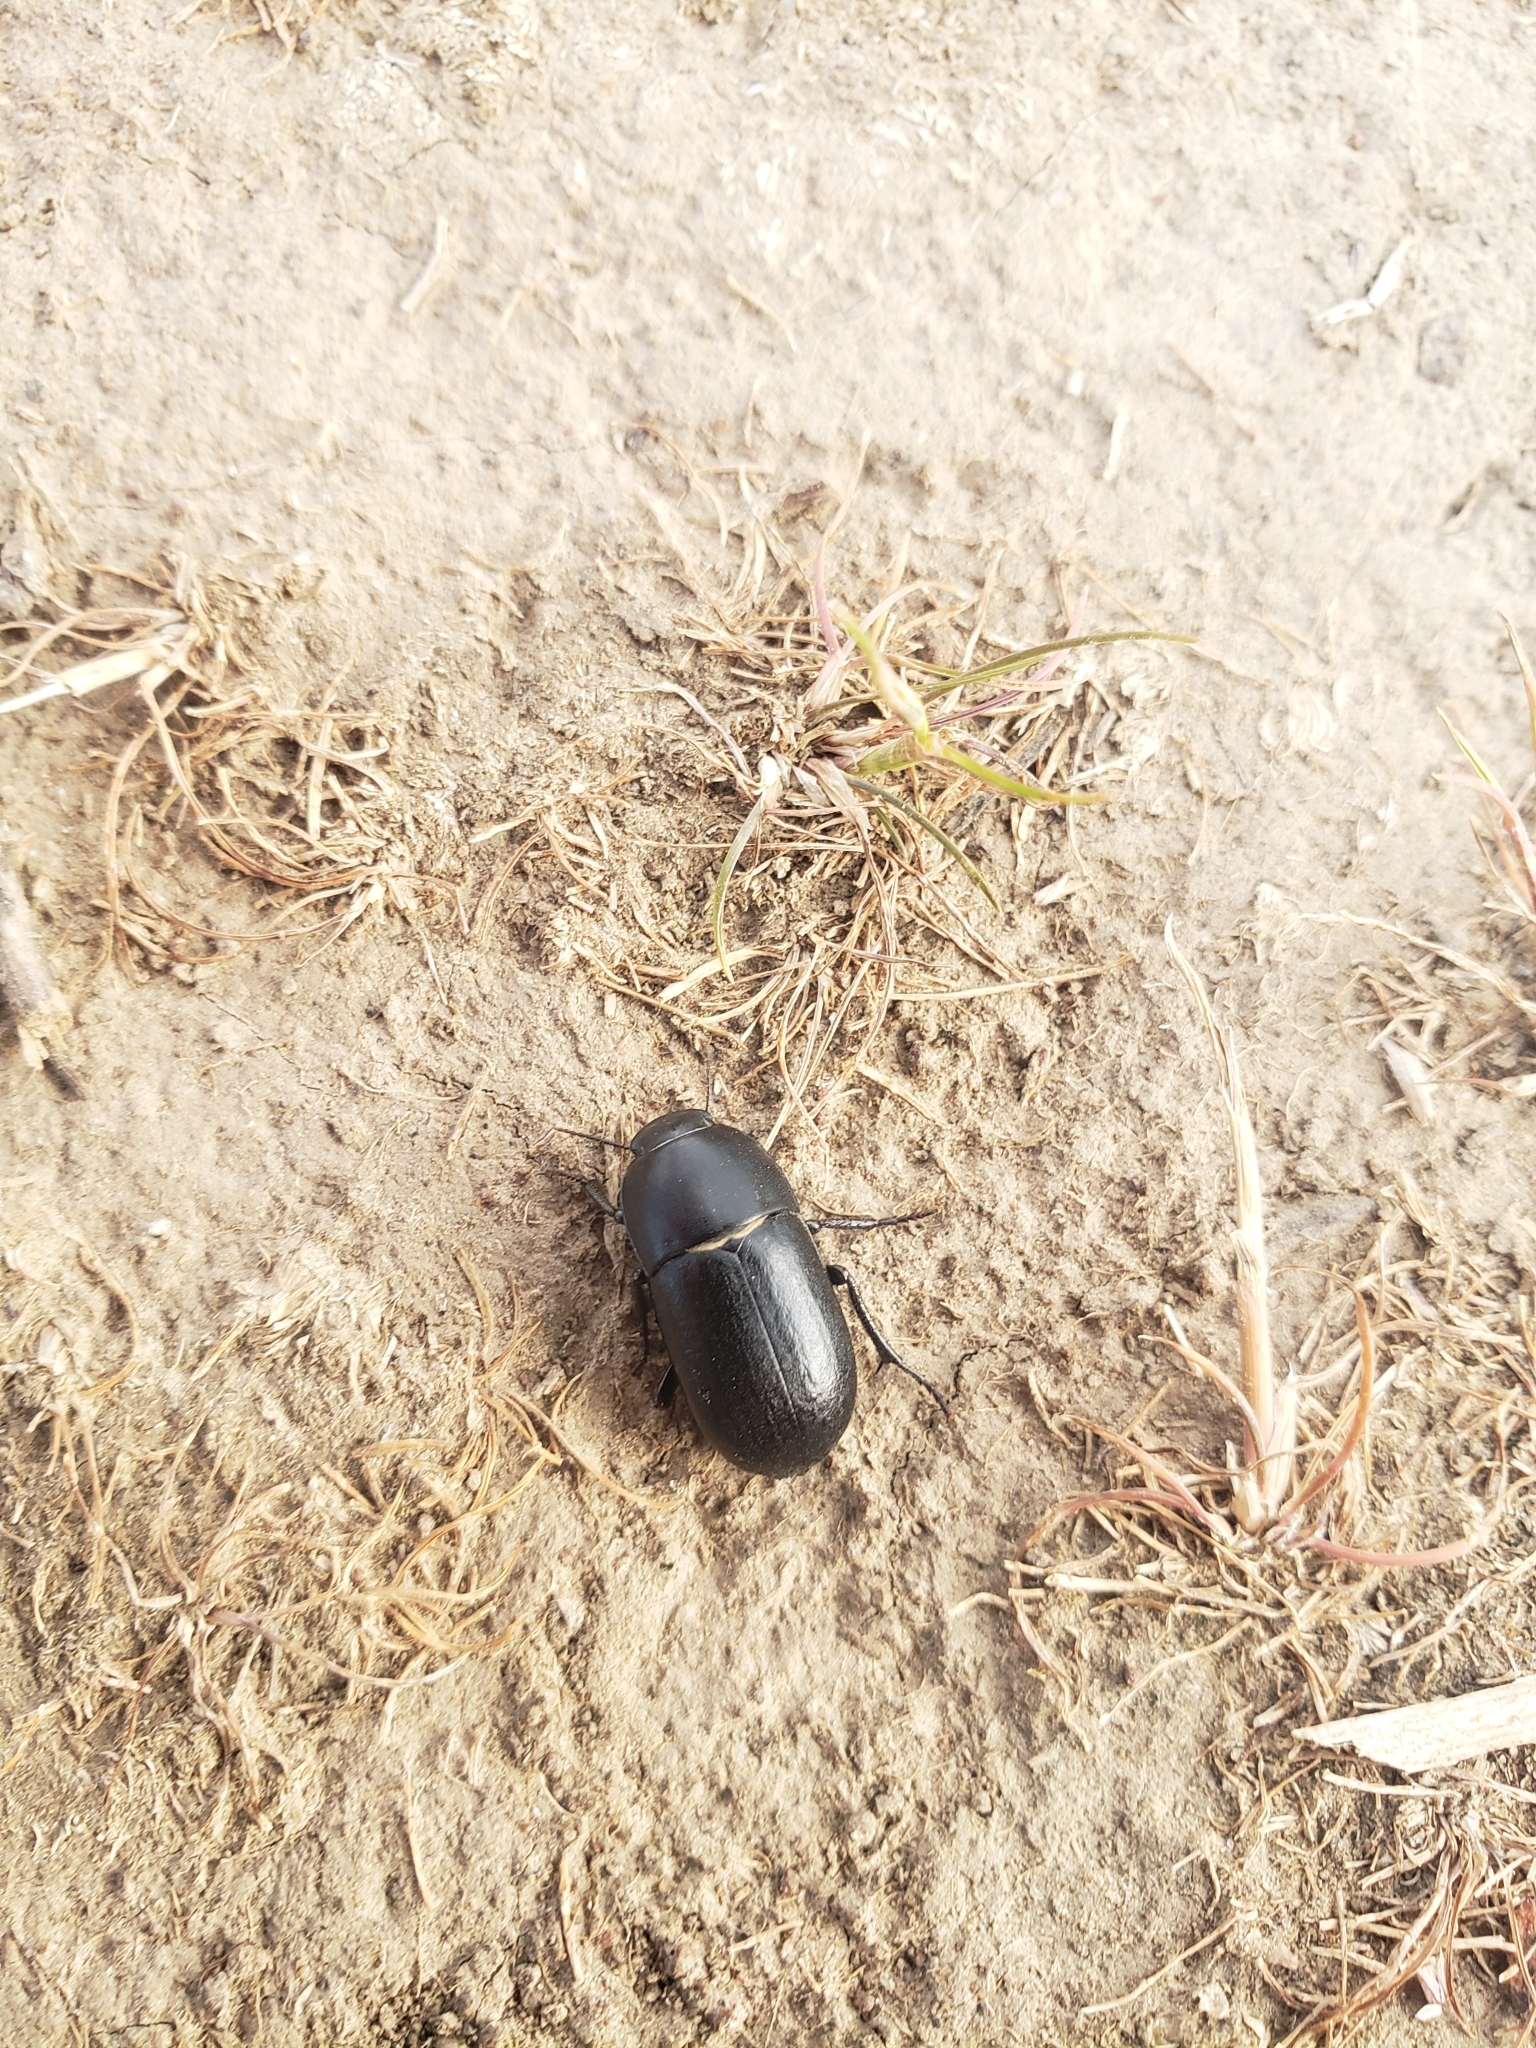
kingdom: Animalia
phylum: Arthropoda
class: Insecta
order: Coleoptera
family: Tenebrionidae
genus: Coniontis
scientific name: Coniontis
